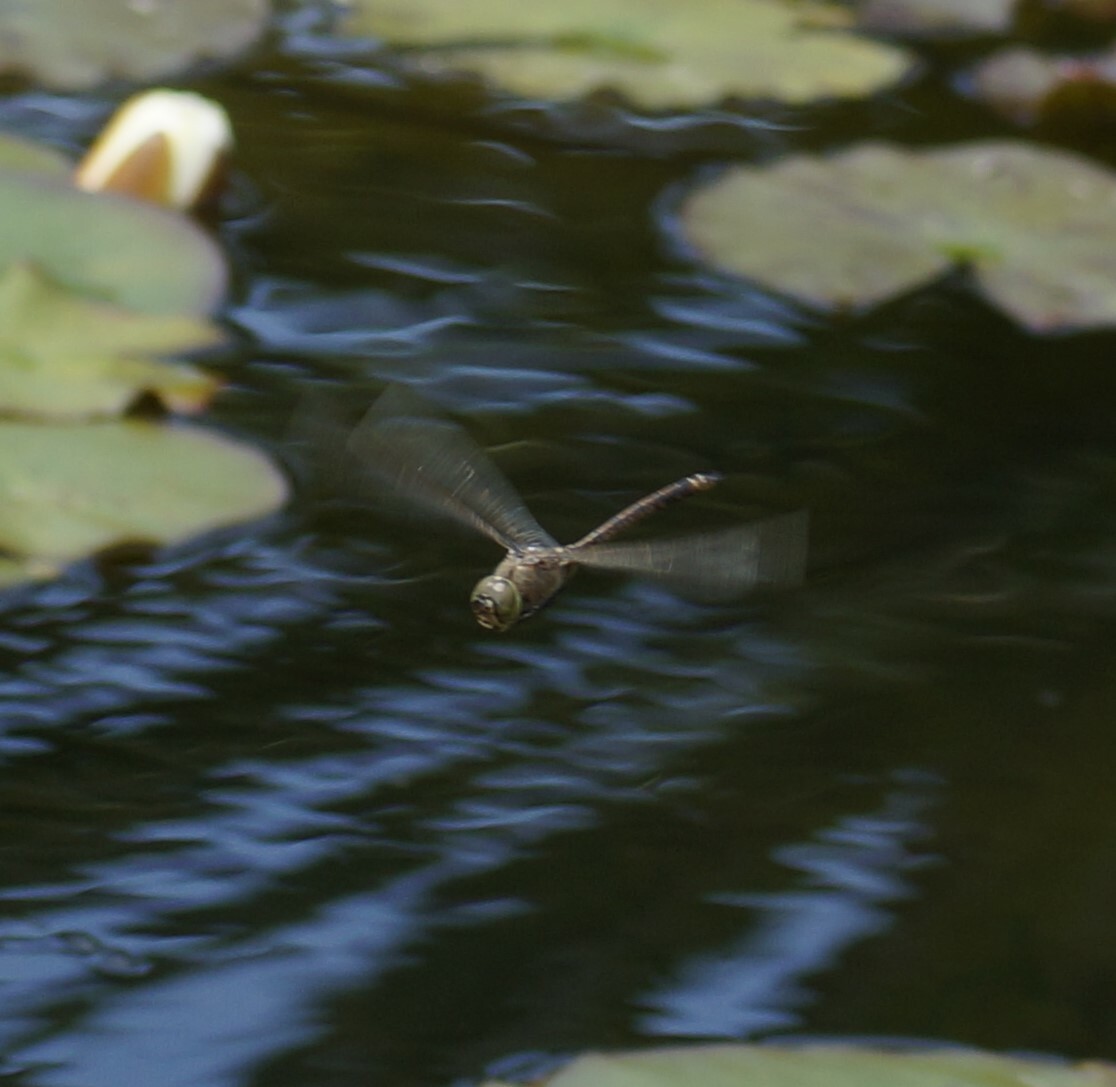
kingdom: Animalia
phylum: Arthropoda
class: Insecta
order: Odonata
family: Aeshnidae
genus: Anax
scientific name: Anax papuensis
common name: Australian emperor
